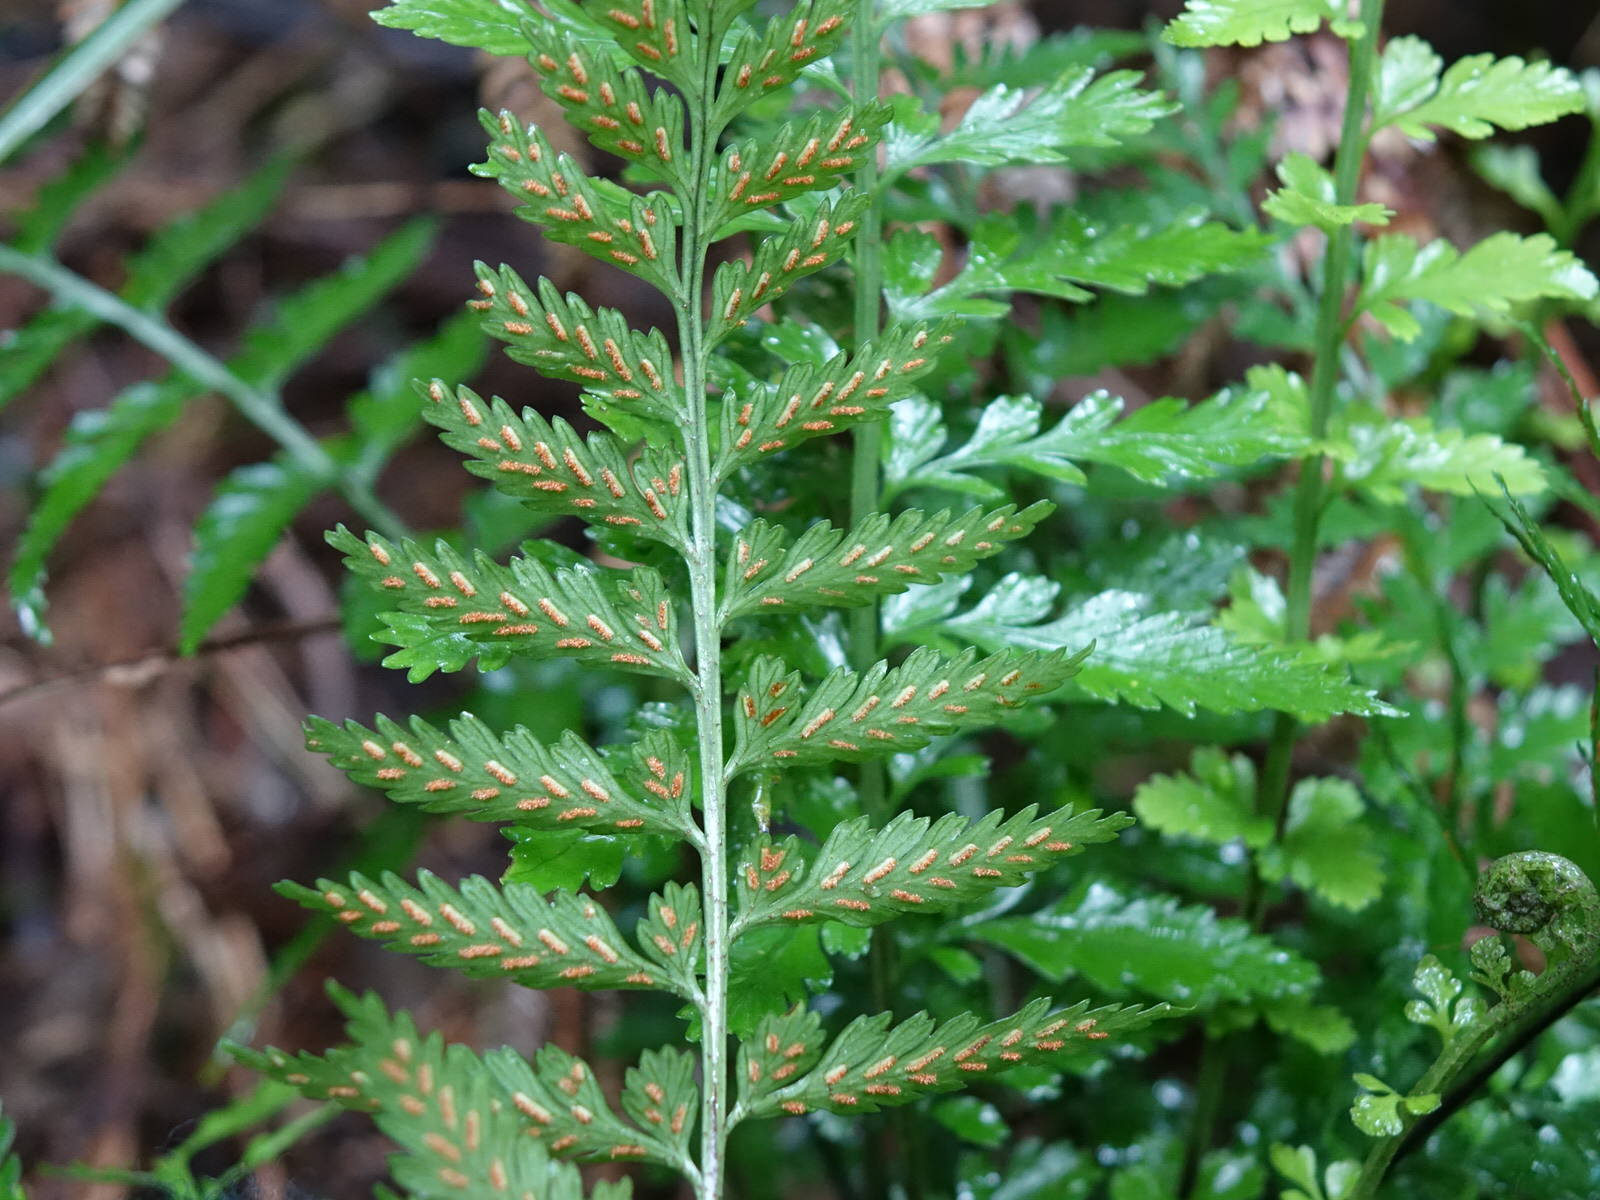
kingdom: Plantae
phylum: Tracheophyta
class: Polypodiopsida
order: Polypodiales
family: Aspleniaceae
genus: Asplenium
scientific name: Asplenium lamprophyllum
